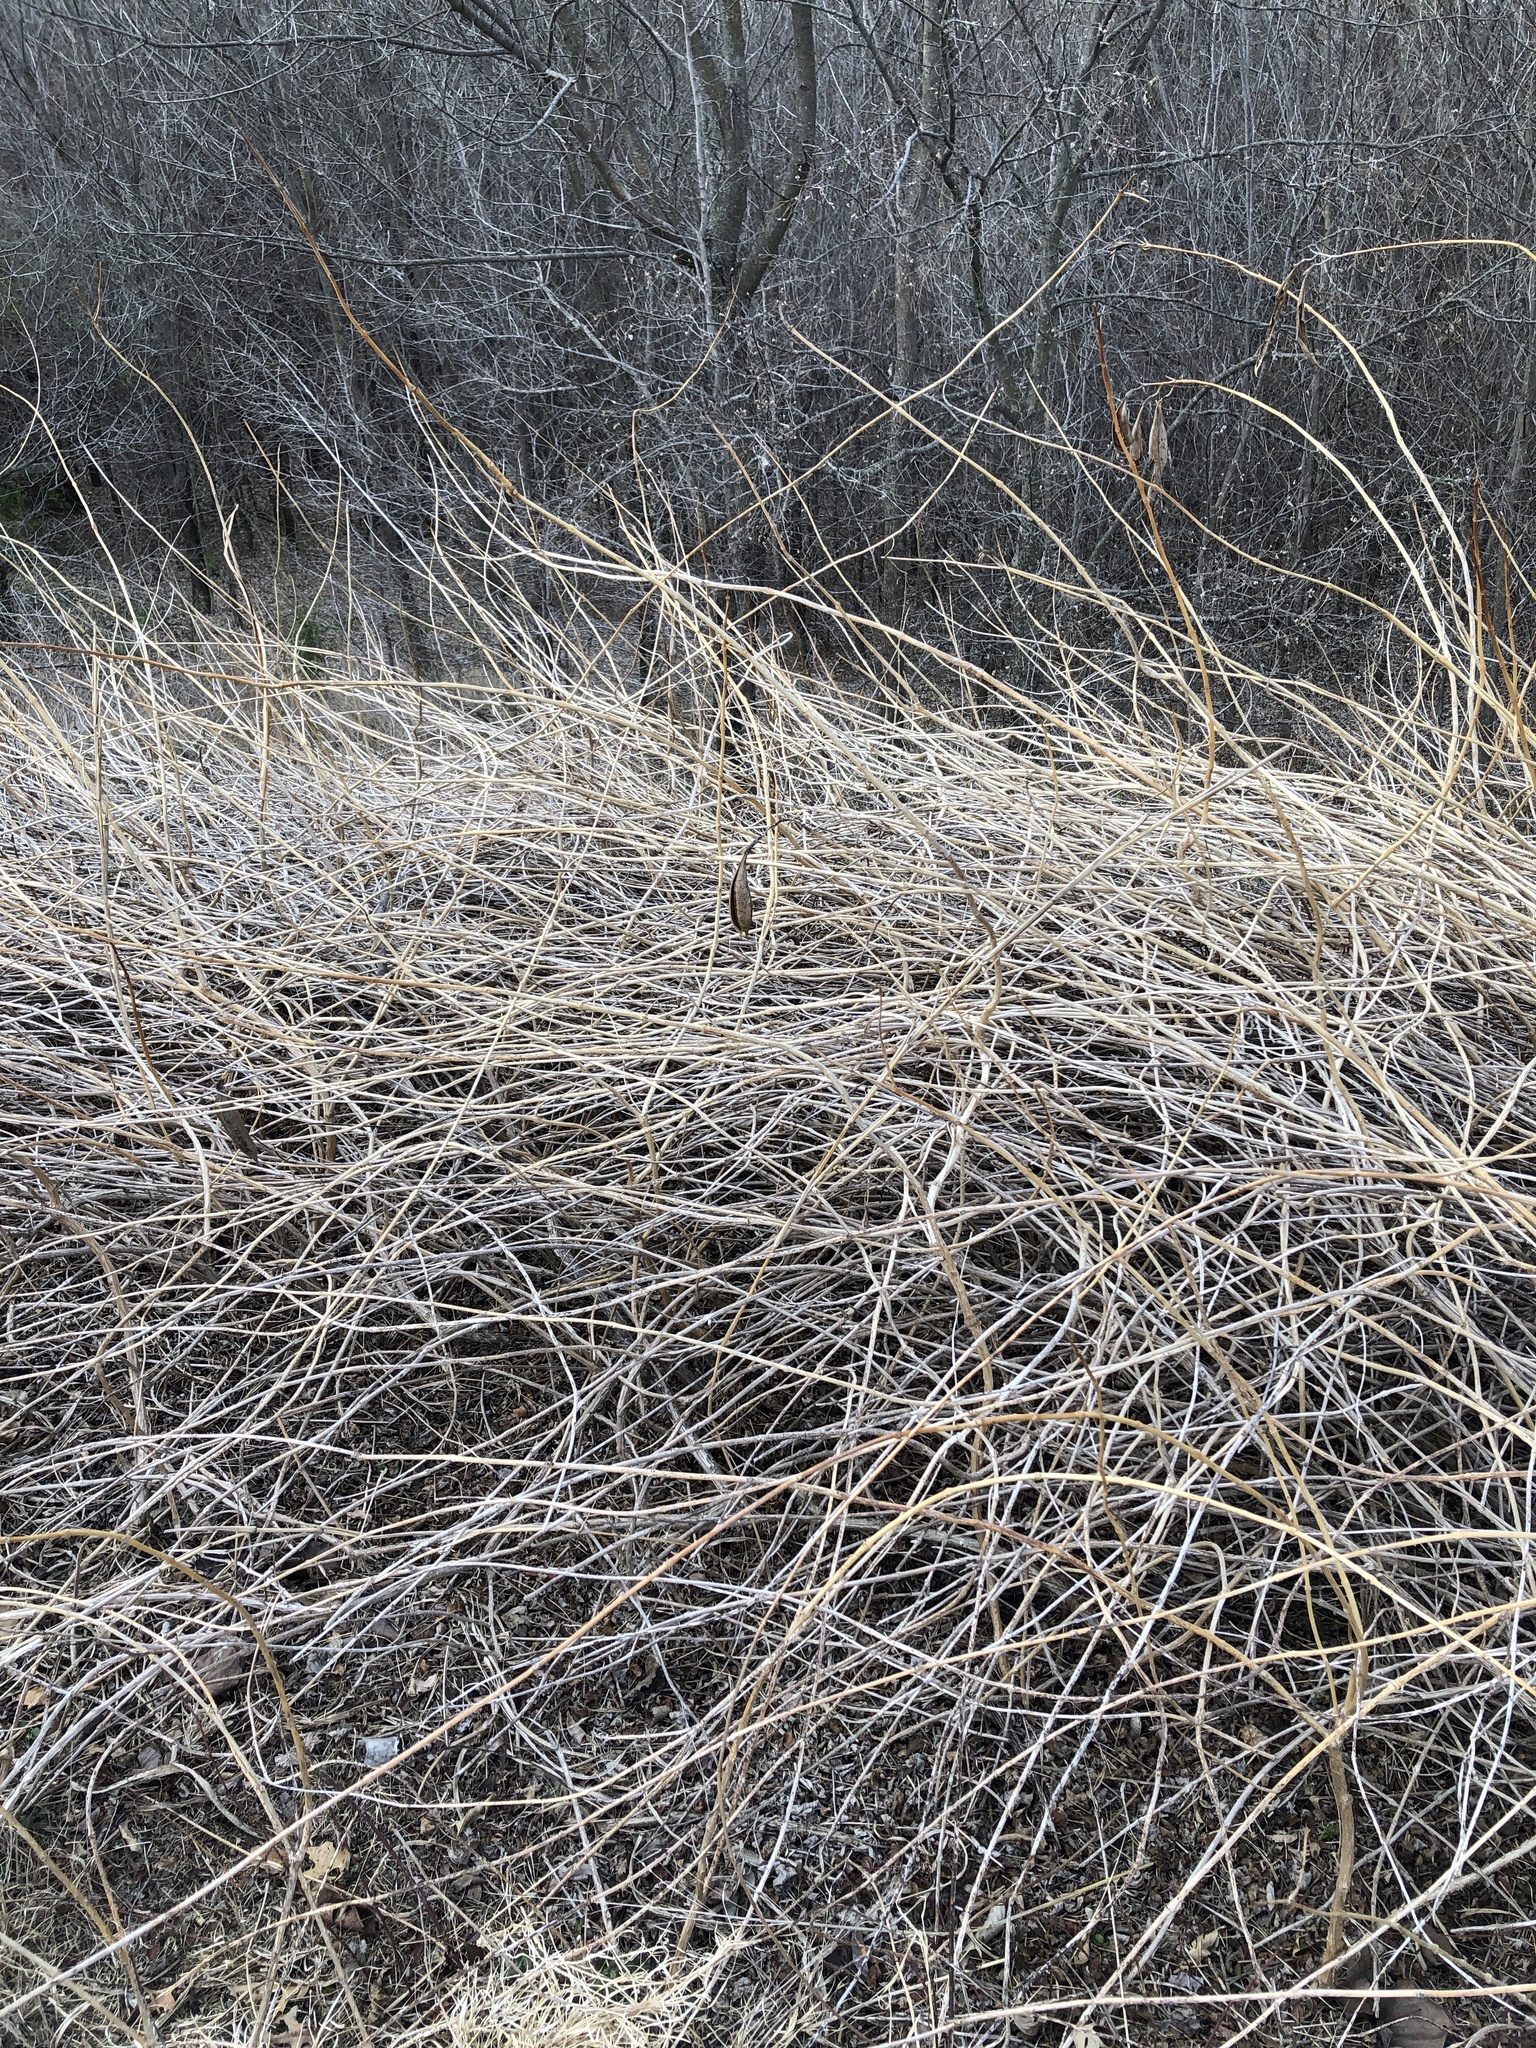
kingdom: Plantae
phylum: Tracheophyta
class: Magnoliopsida
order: Lamiales
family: Bignoniaceae
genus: Campsis
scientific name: Campsis radicans
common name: Trumpet-creeper
